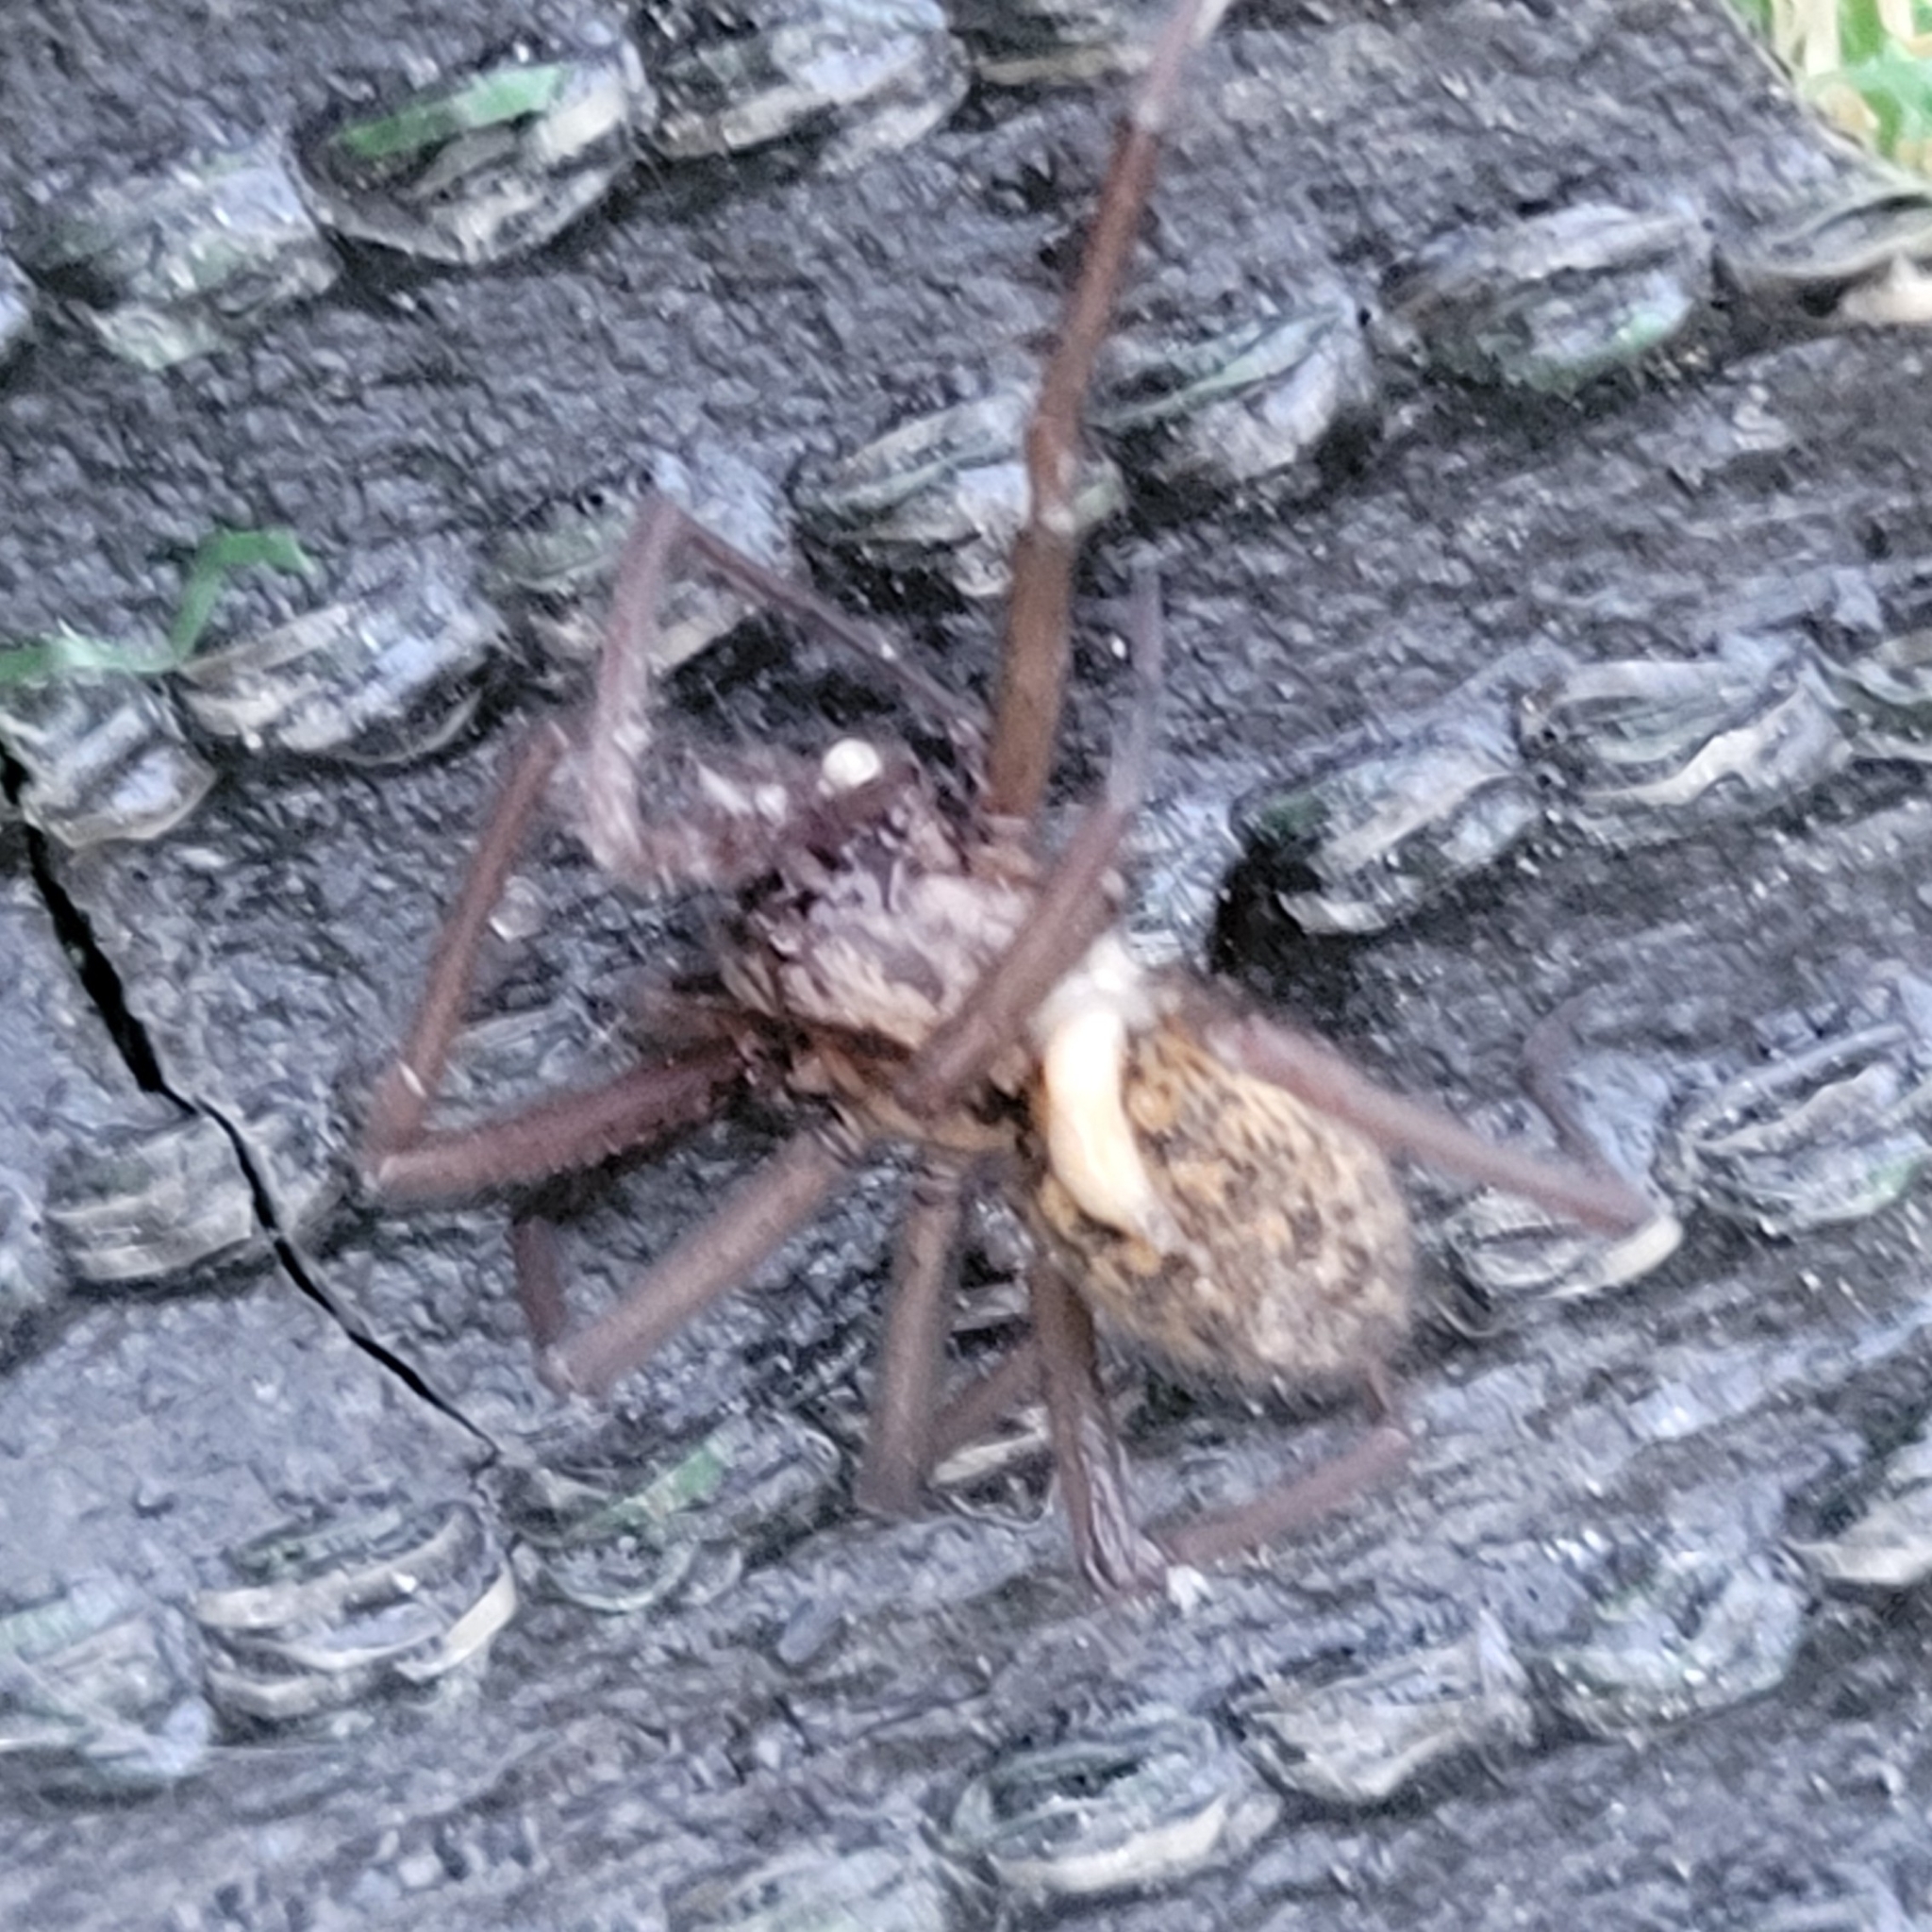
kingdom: Animalia
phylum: Arthropoda
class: Arachnida
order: Araneae
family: Agelenidae
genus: Eratigena
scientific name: Eratigena duellica
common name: Giant house spider
